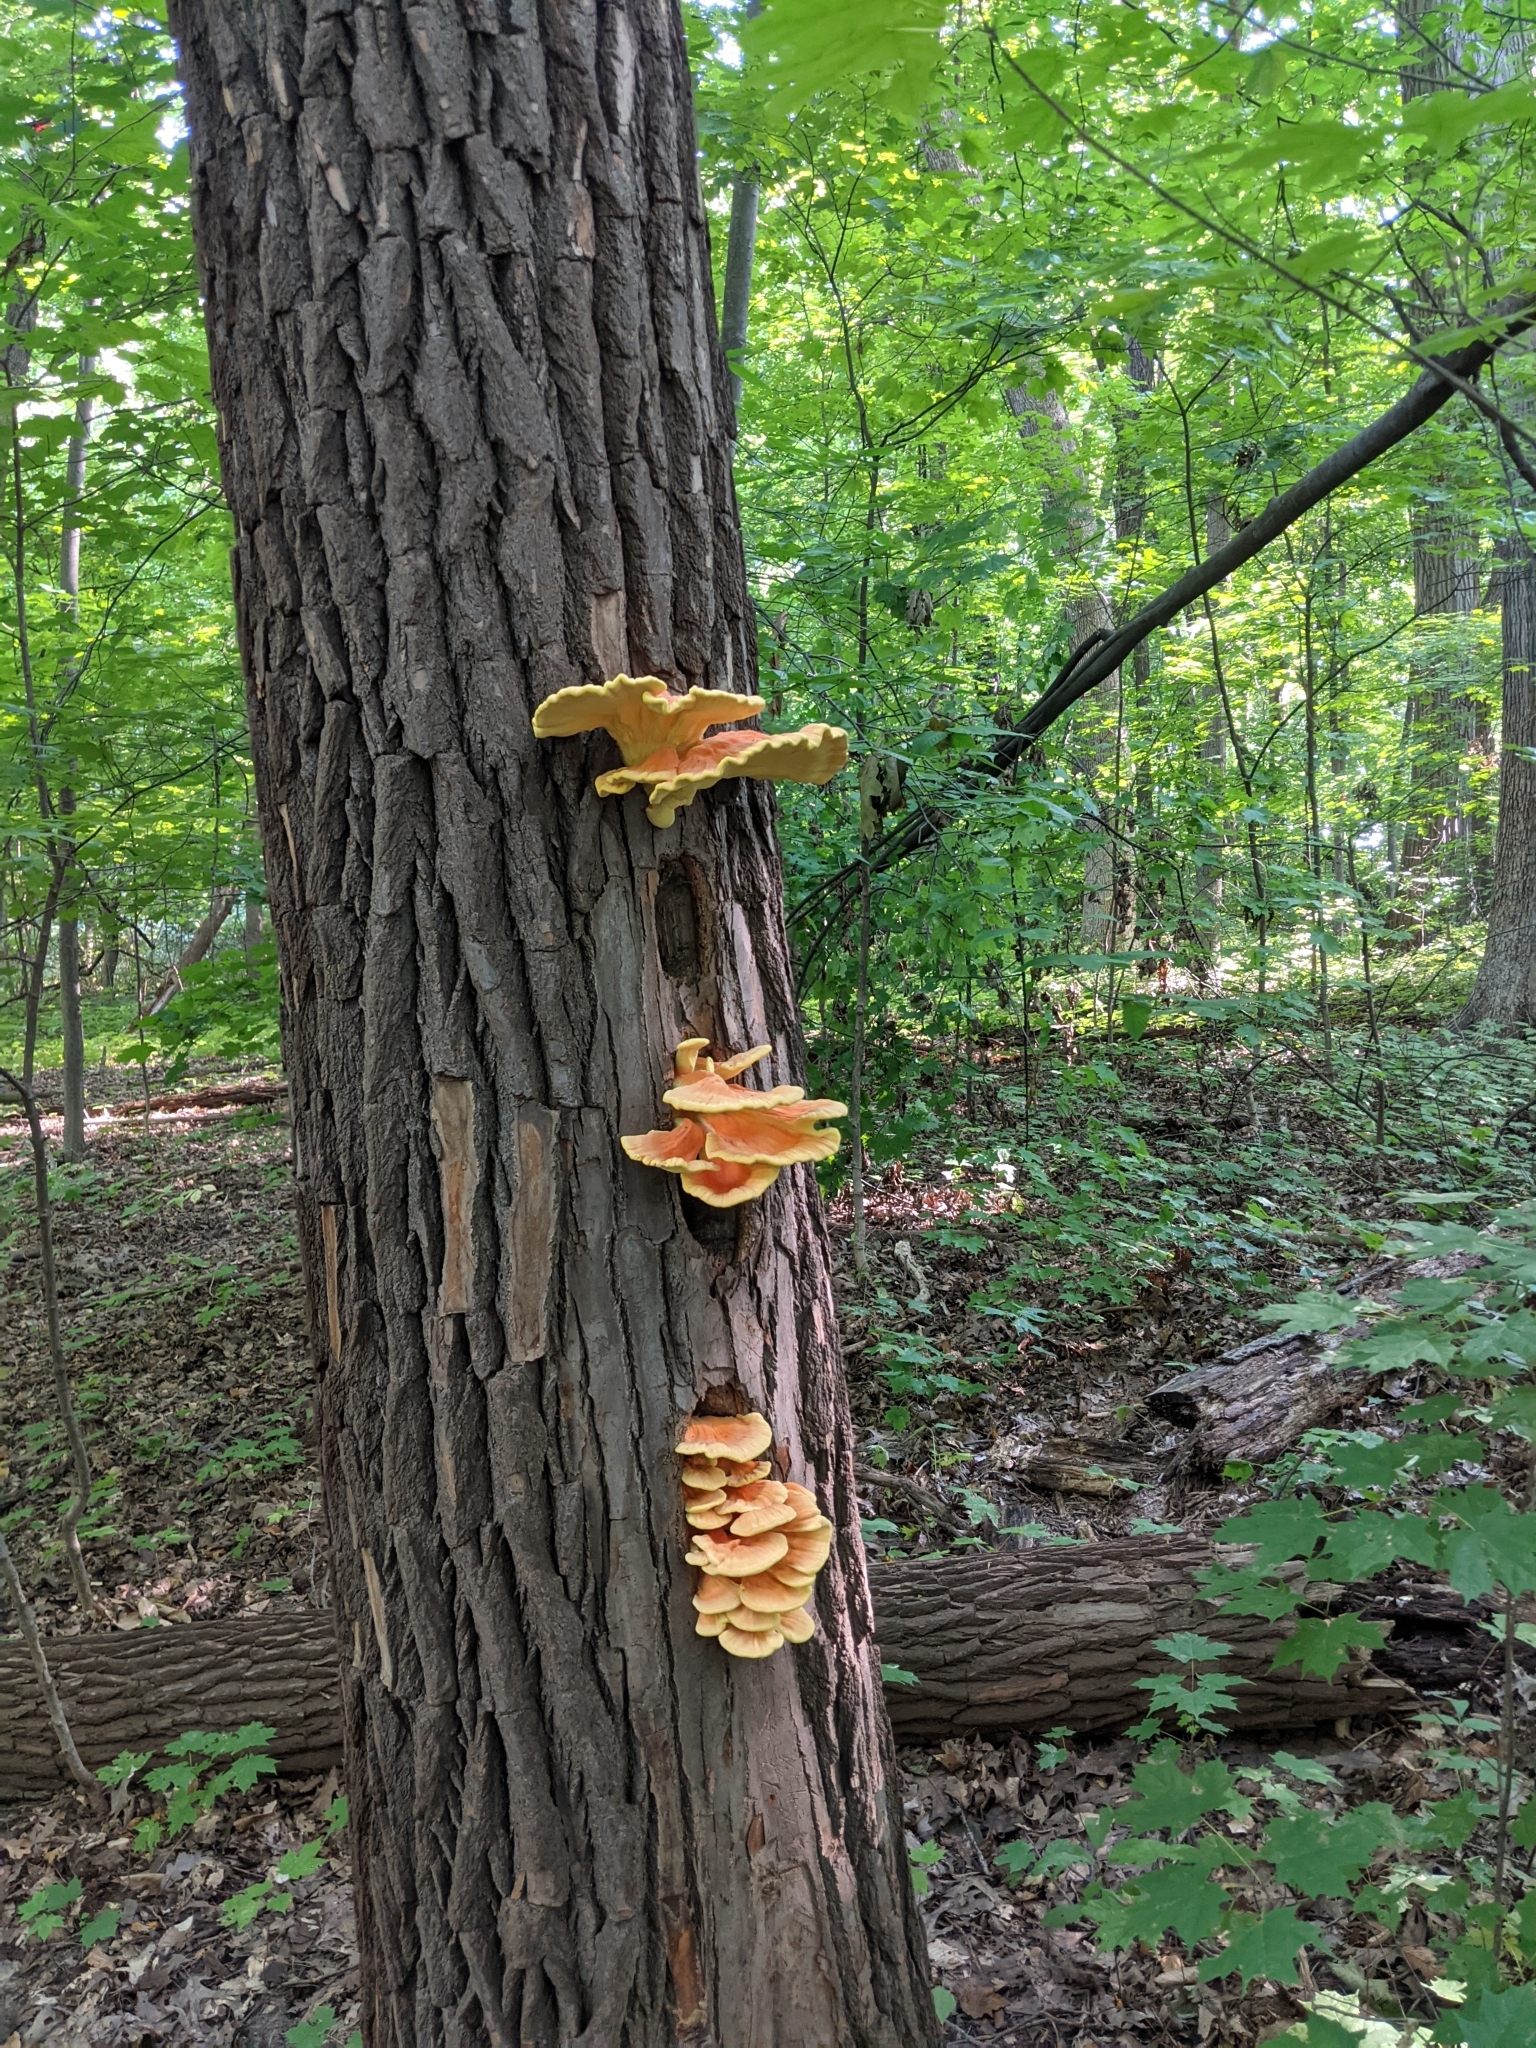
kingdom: Fungi
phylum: Basidiomycota
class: Agaricomycetes
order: Polyporales
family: Laetiporaceae
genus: Laetiporus
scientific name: Laetiporus sulphureus
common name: Chicken of the woods
